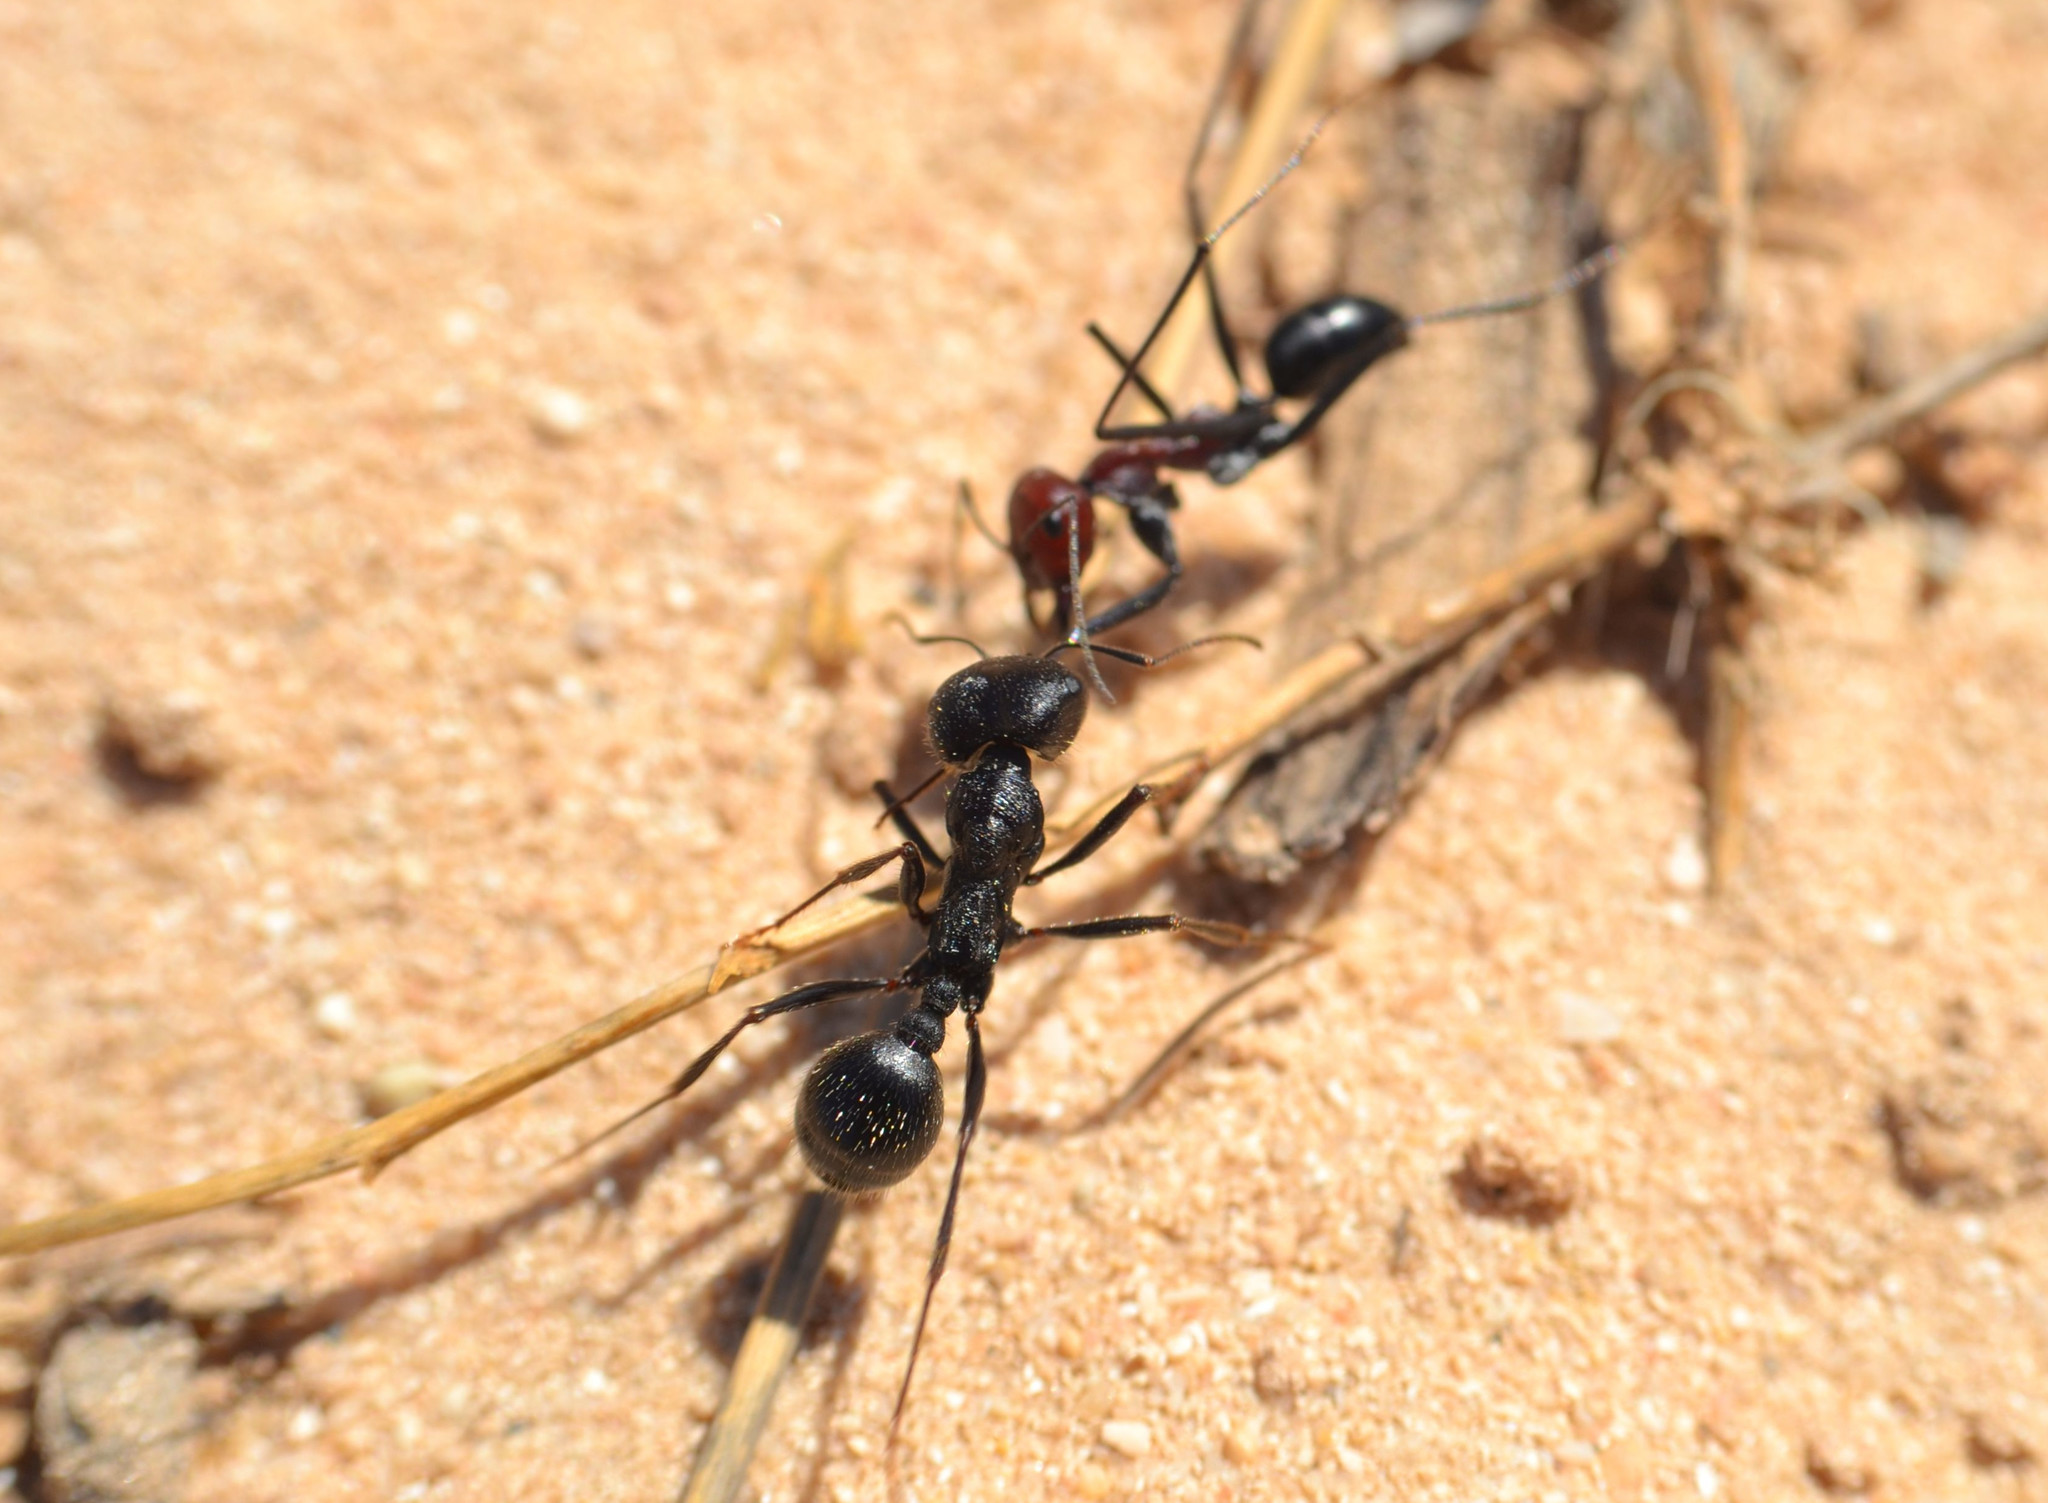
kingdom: Animalia
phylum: Arthropoda
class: Insecta
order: Hymenoptera
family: Formicidae
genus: Messor
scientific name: Messor arenarius
